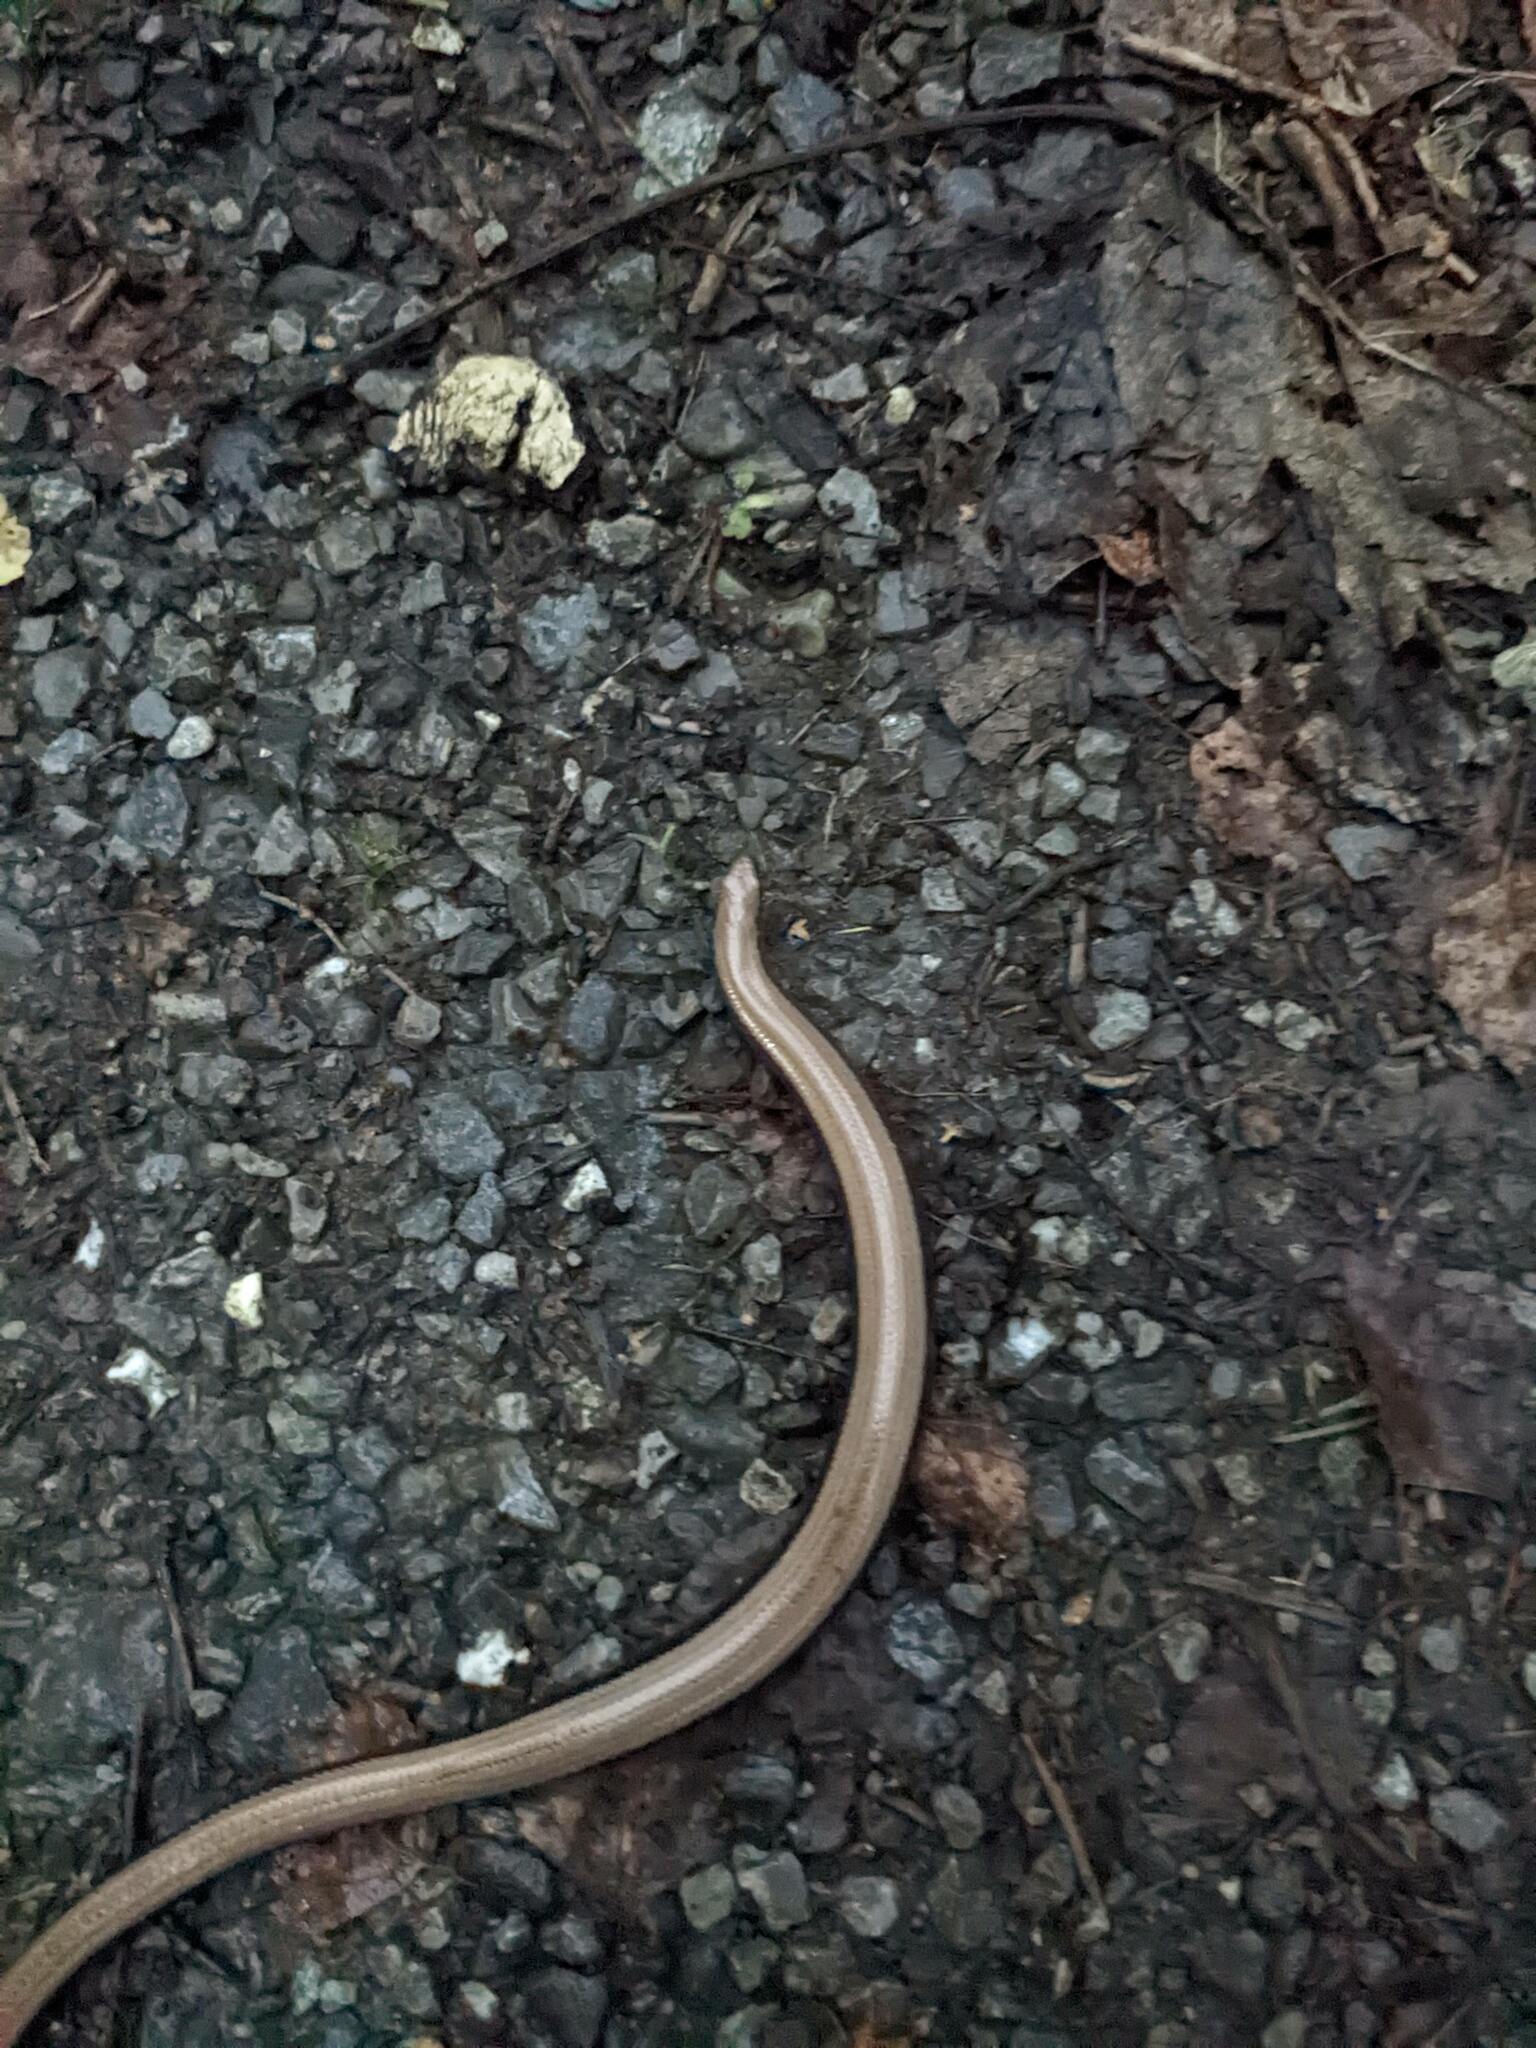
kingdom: Animalia
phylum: Chordata
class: Squamata
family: Anguidae
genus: Anguis
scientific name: Anguis fragilis
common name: Slow worm
